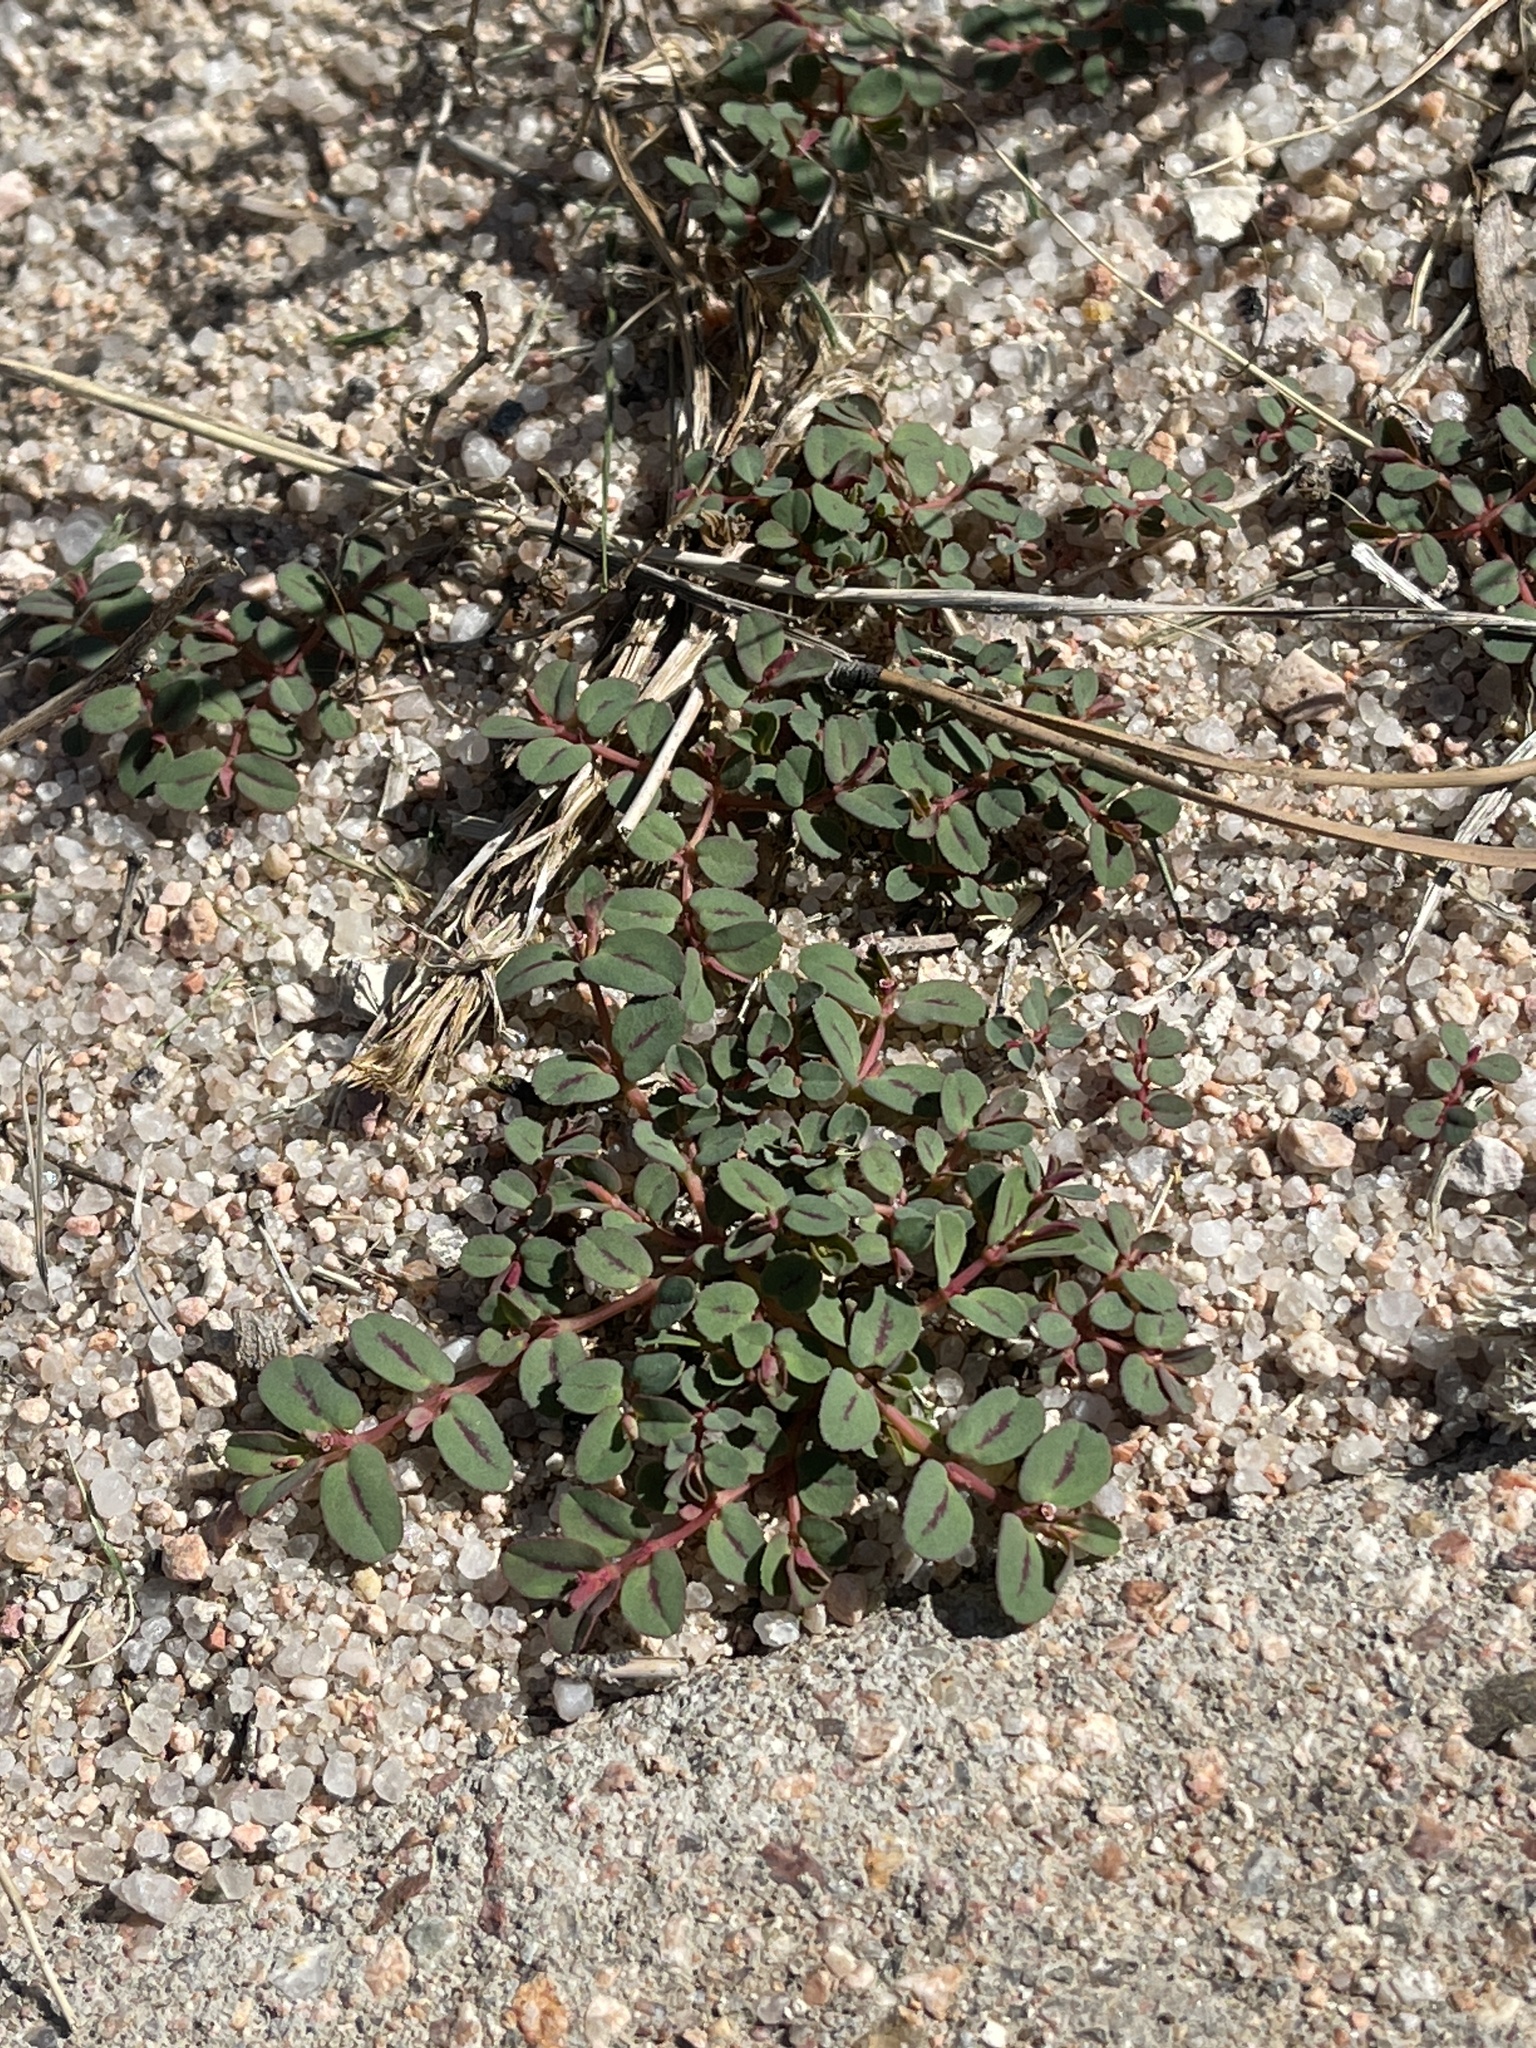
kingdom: Plantae
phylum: Tracheophyta
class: Magnoliopsida
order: Malpighiales
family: Euphorbiaceae
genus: Euphorbia
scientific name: Euphorbia serpillifolia
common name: Thyme-leaf spurge
